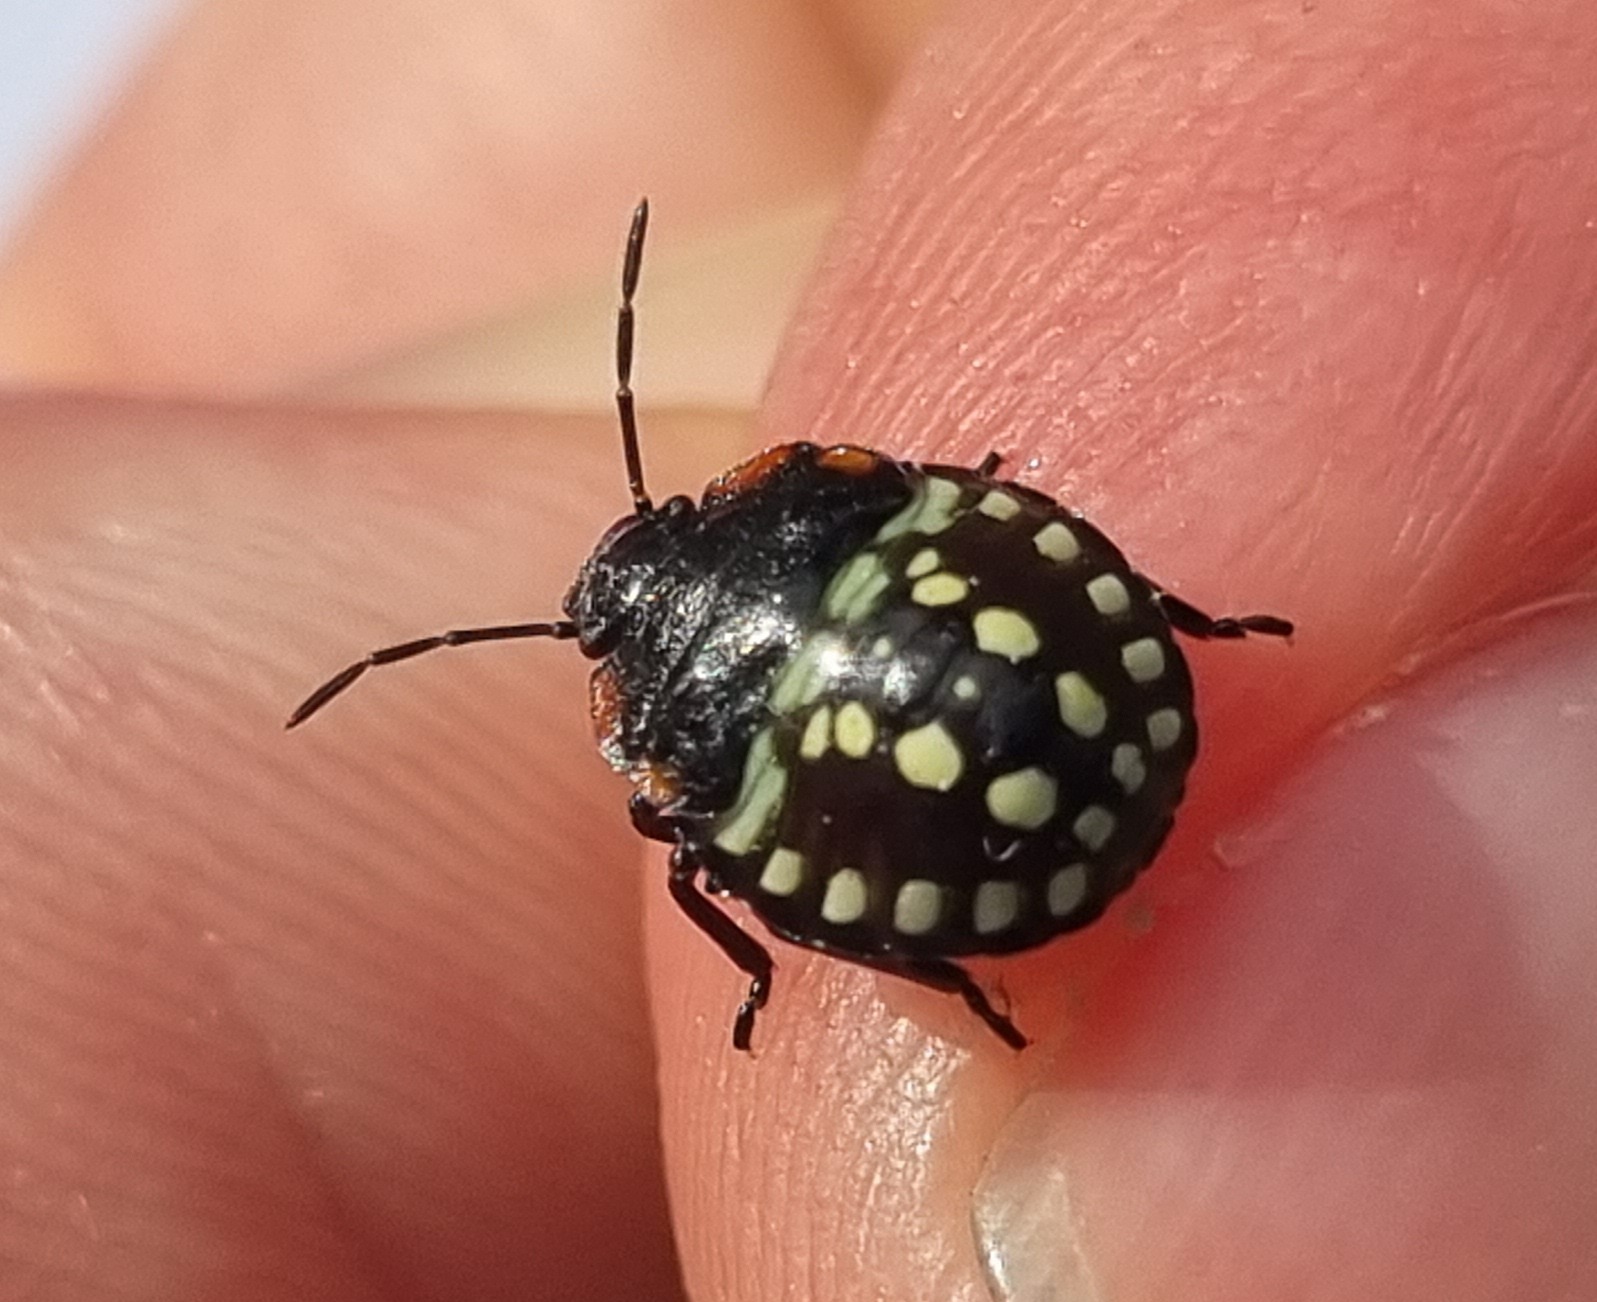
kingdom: Animalia
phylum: Arthropoda
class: Insecta
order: Hemiptera
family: Pentatomidae
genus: Nezara
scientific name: Nezara viridula
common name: Southern green stink bug
